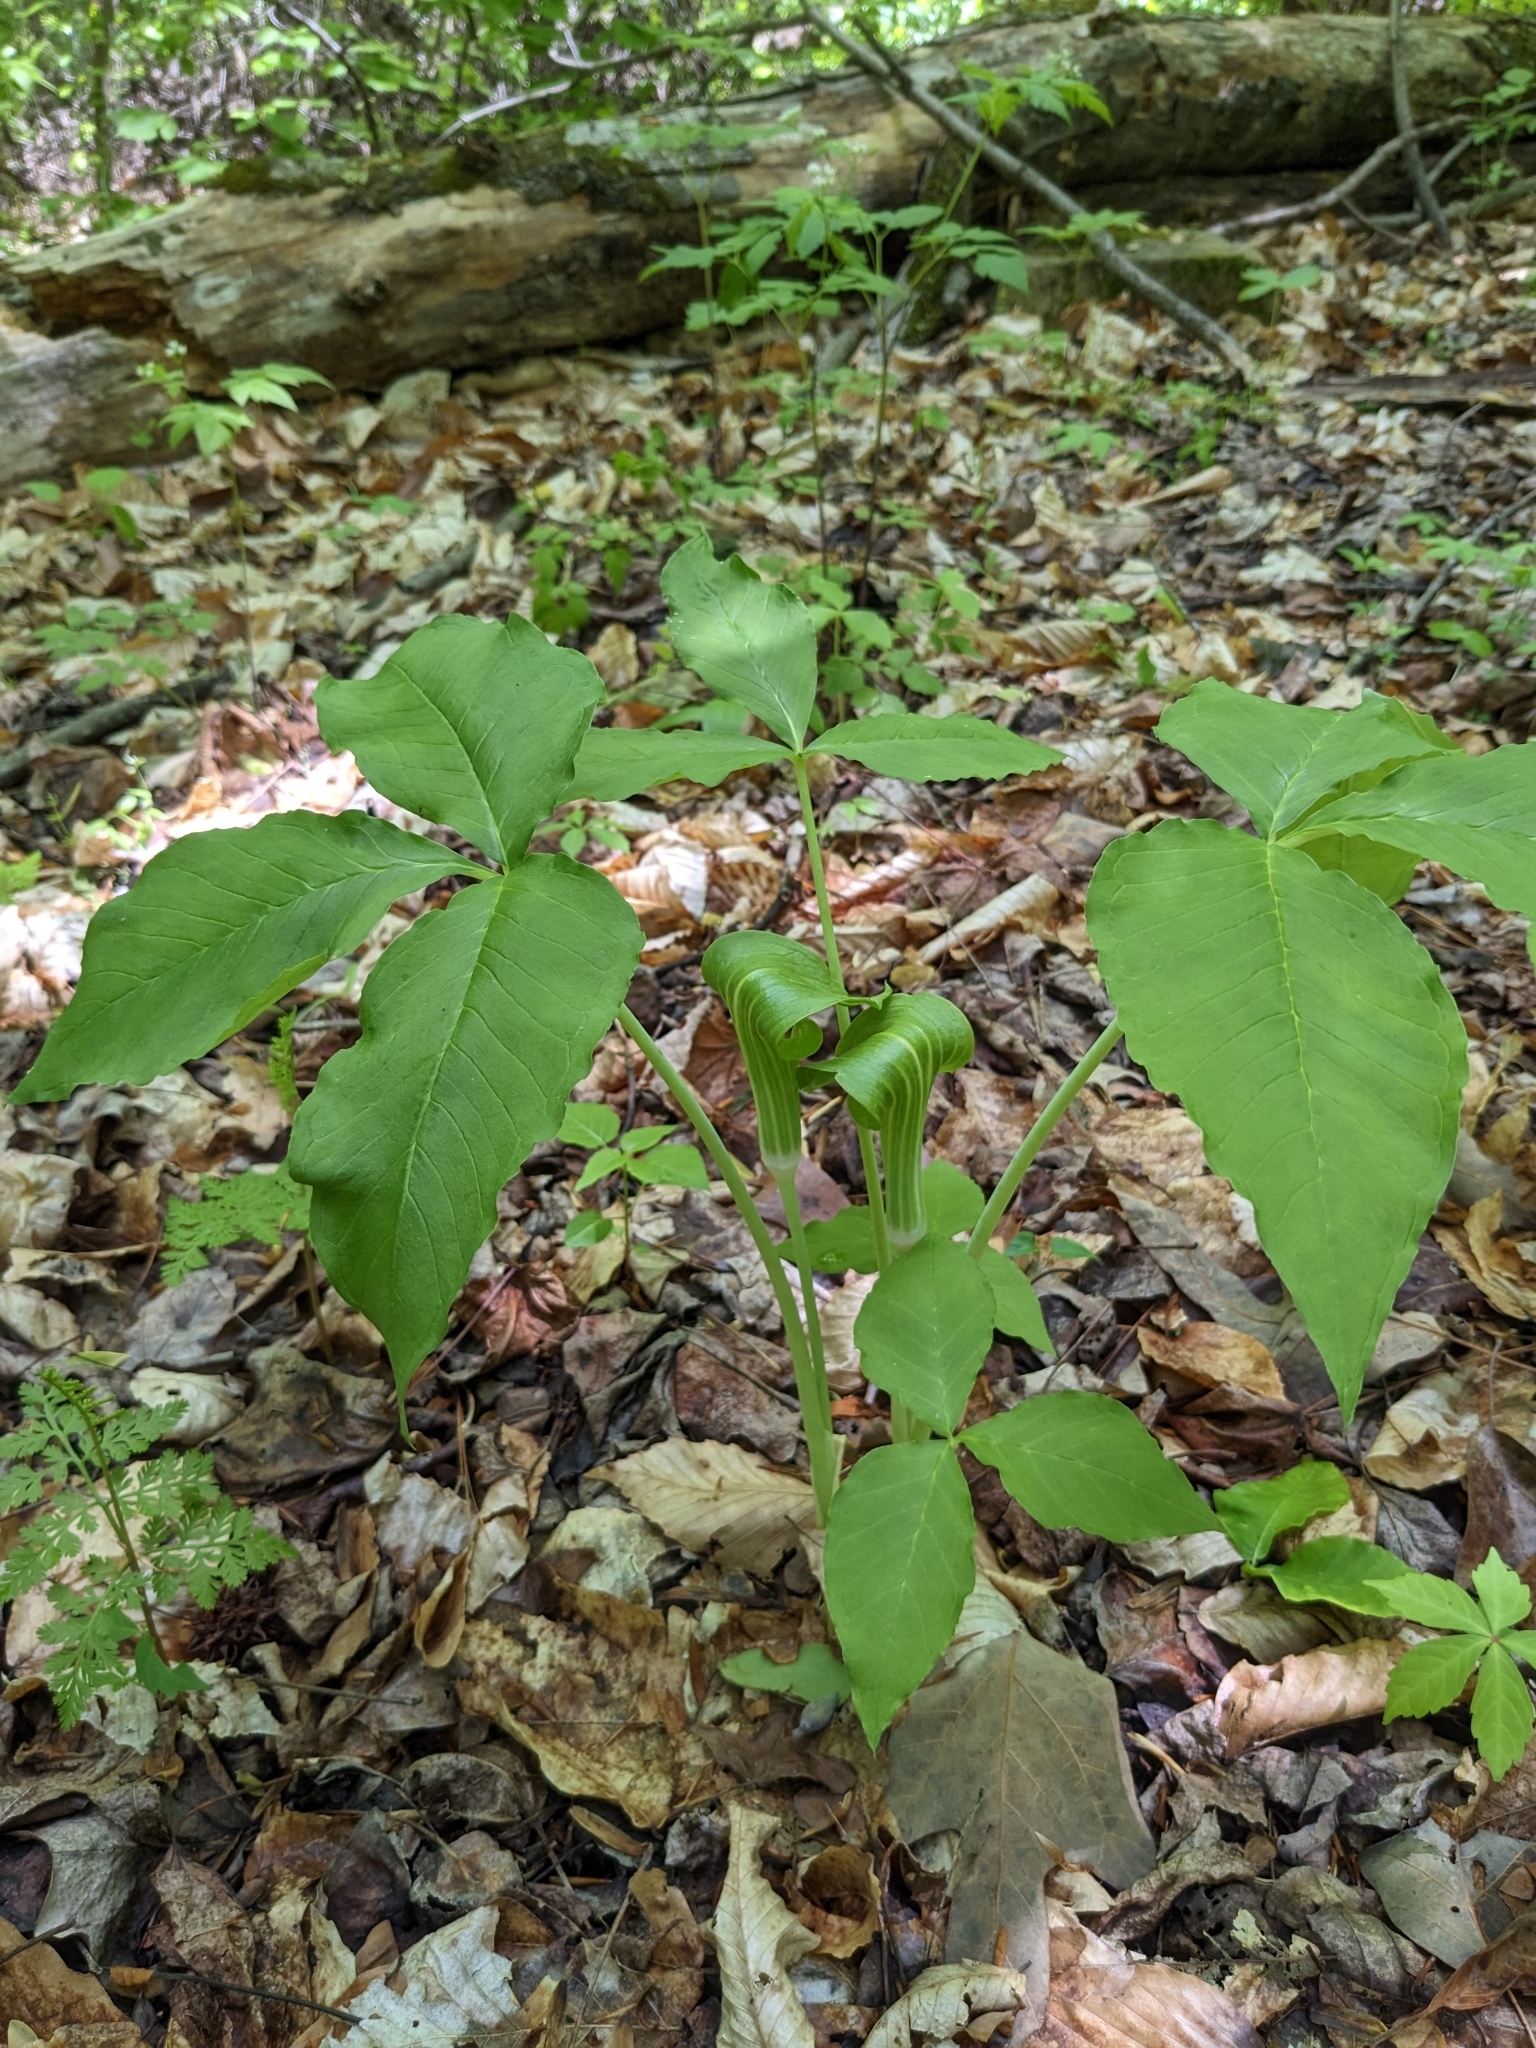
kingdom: Plantae
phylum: Tracheophyta
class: Liliopsida
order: Alismatales
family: Araceae
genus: Arisaema
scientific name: Arisaema triphyllum
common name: Jack-in-the-pulpit
